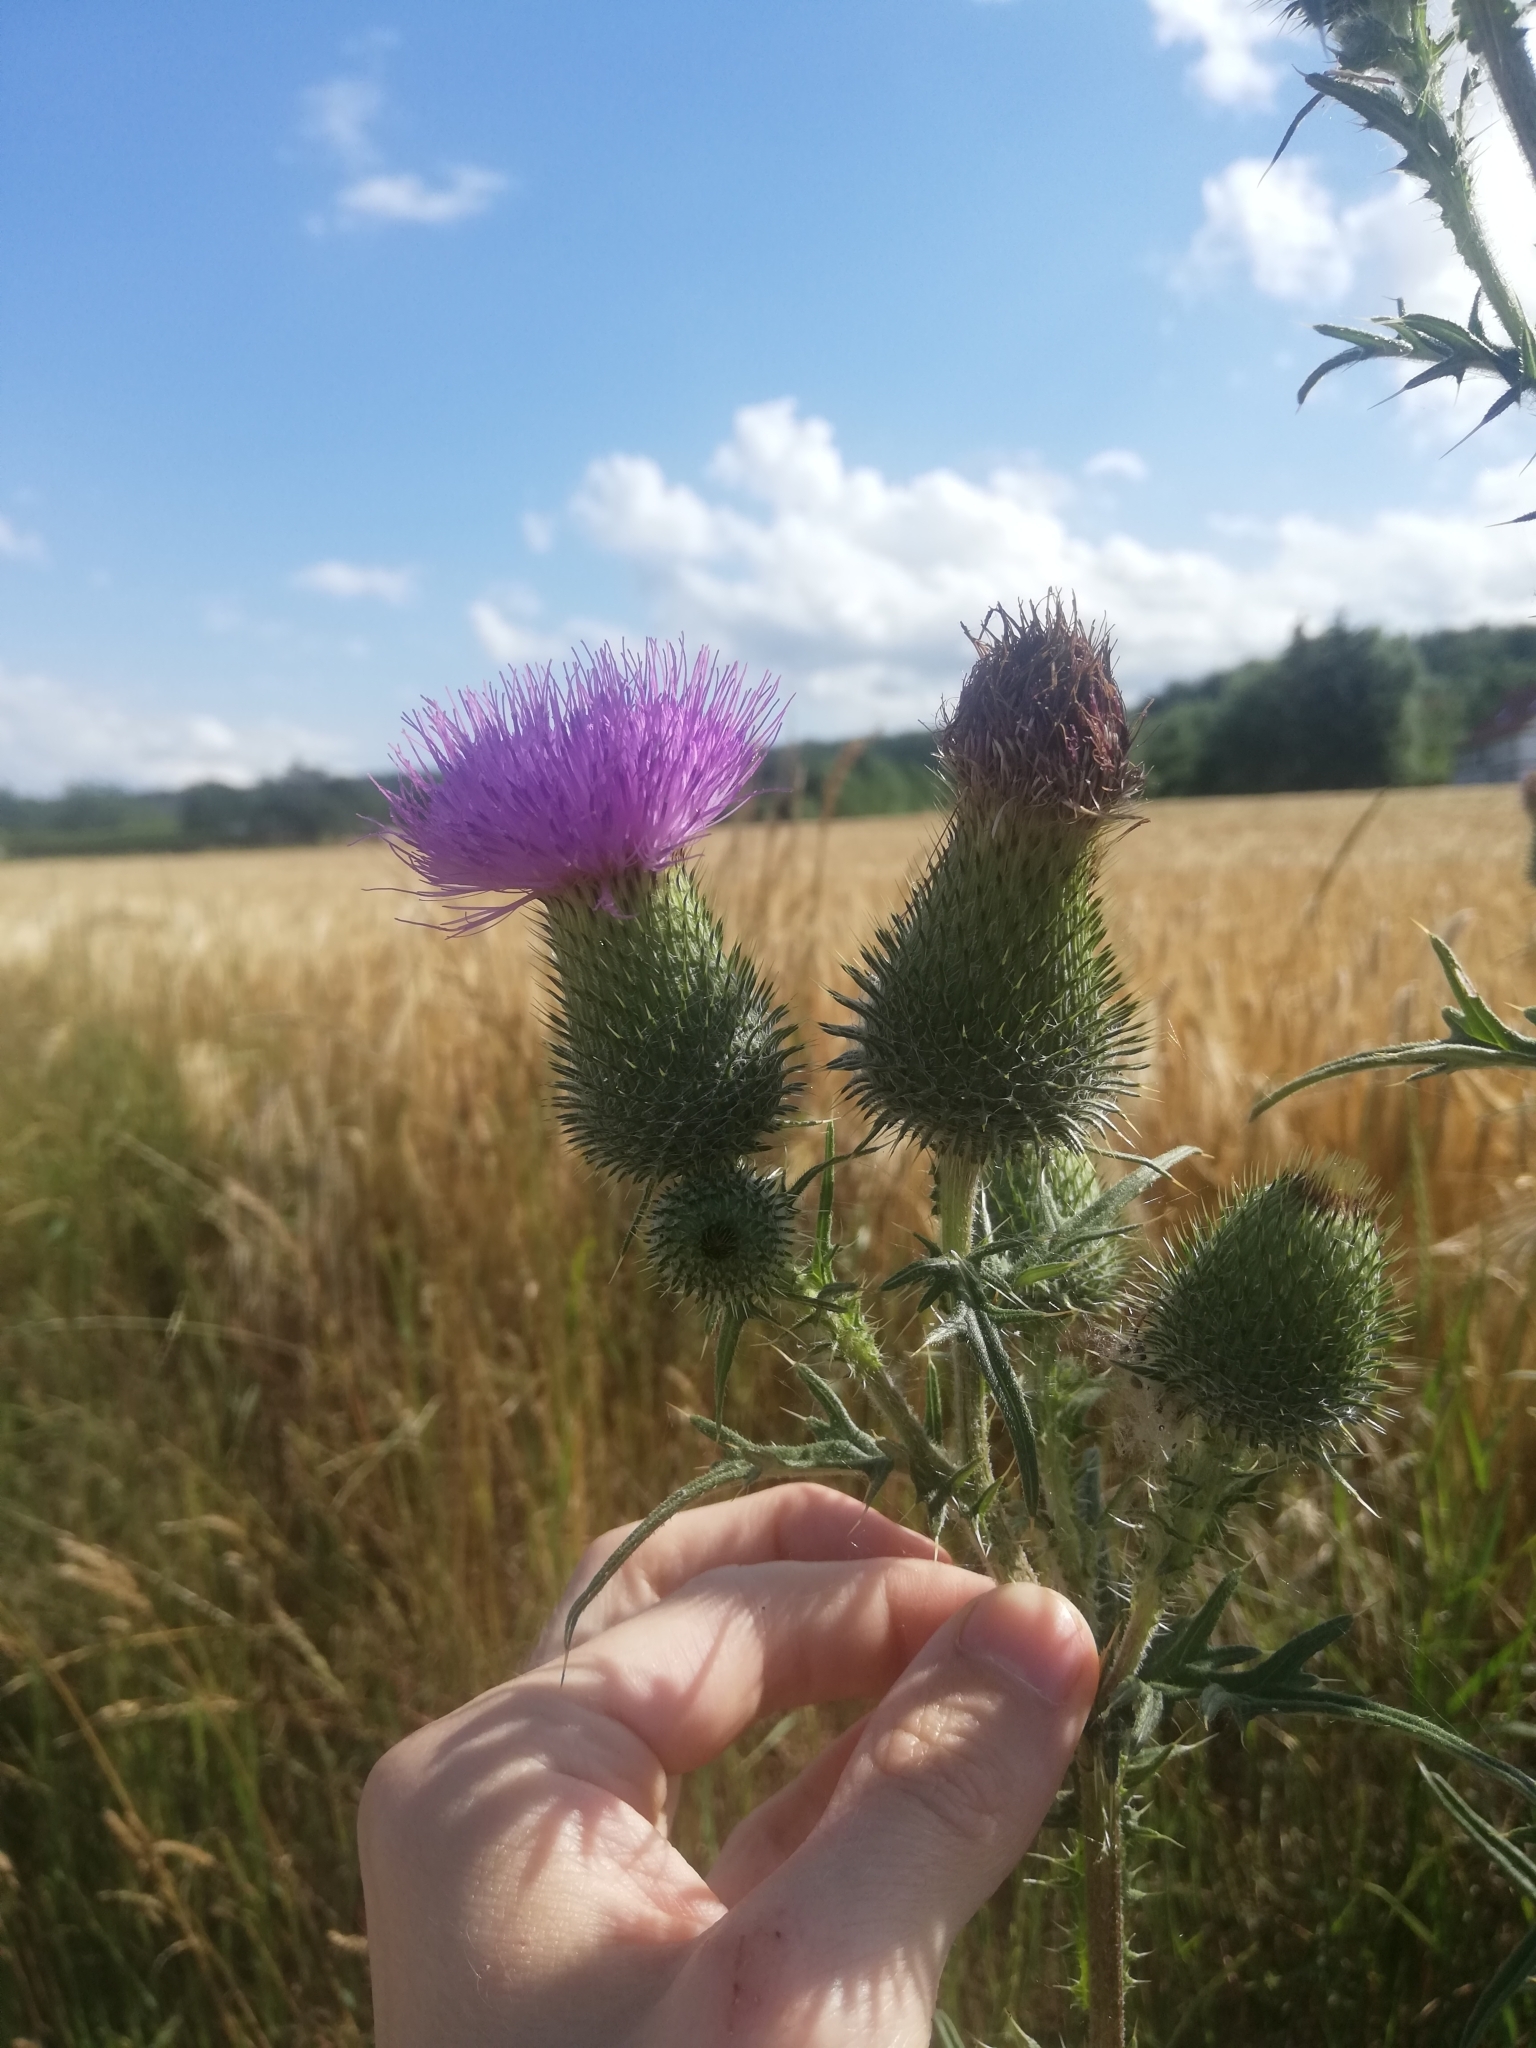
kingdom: Plantae
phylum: Tracheophyta
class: Magnoliopsida
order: Asterales
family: Asteraceae
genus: Cirsium
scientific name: Cirsium vulgare
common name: Bull thistle
